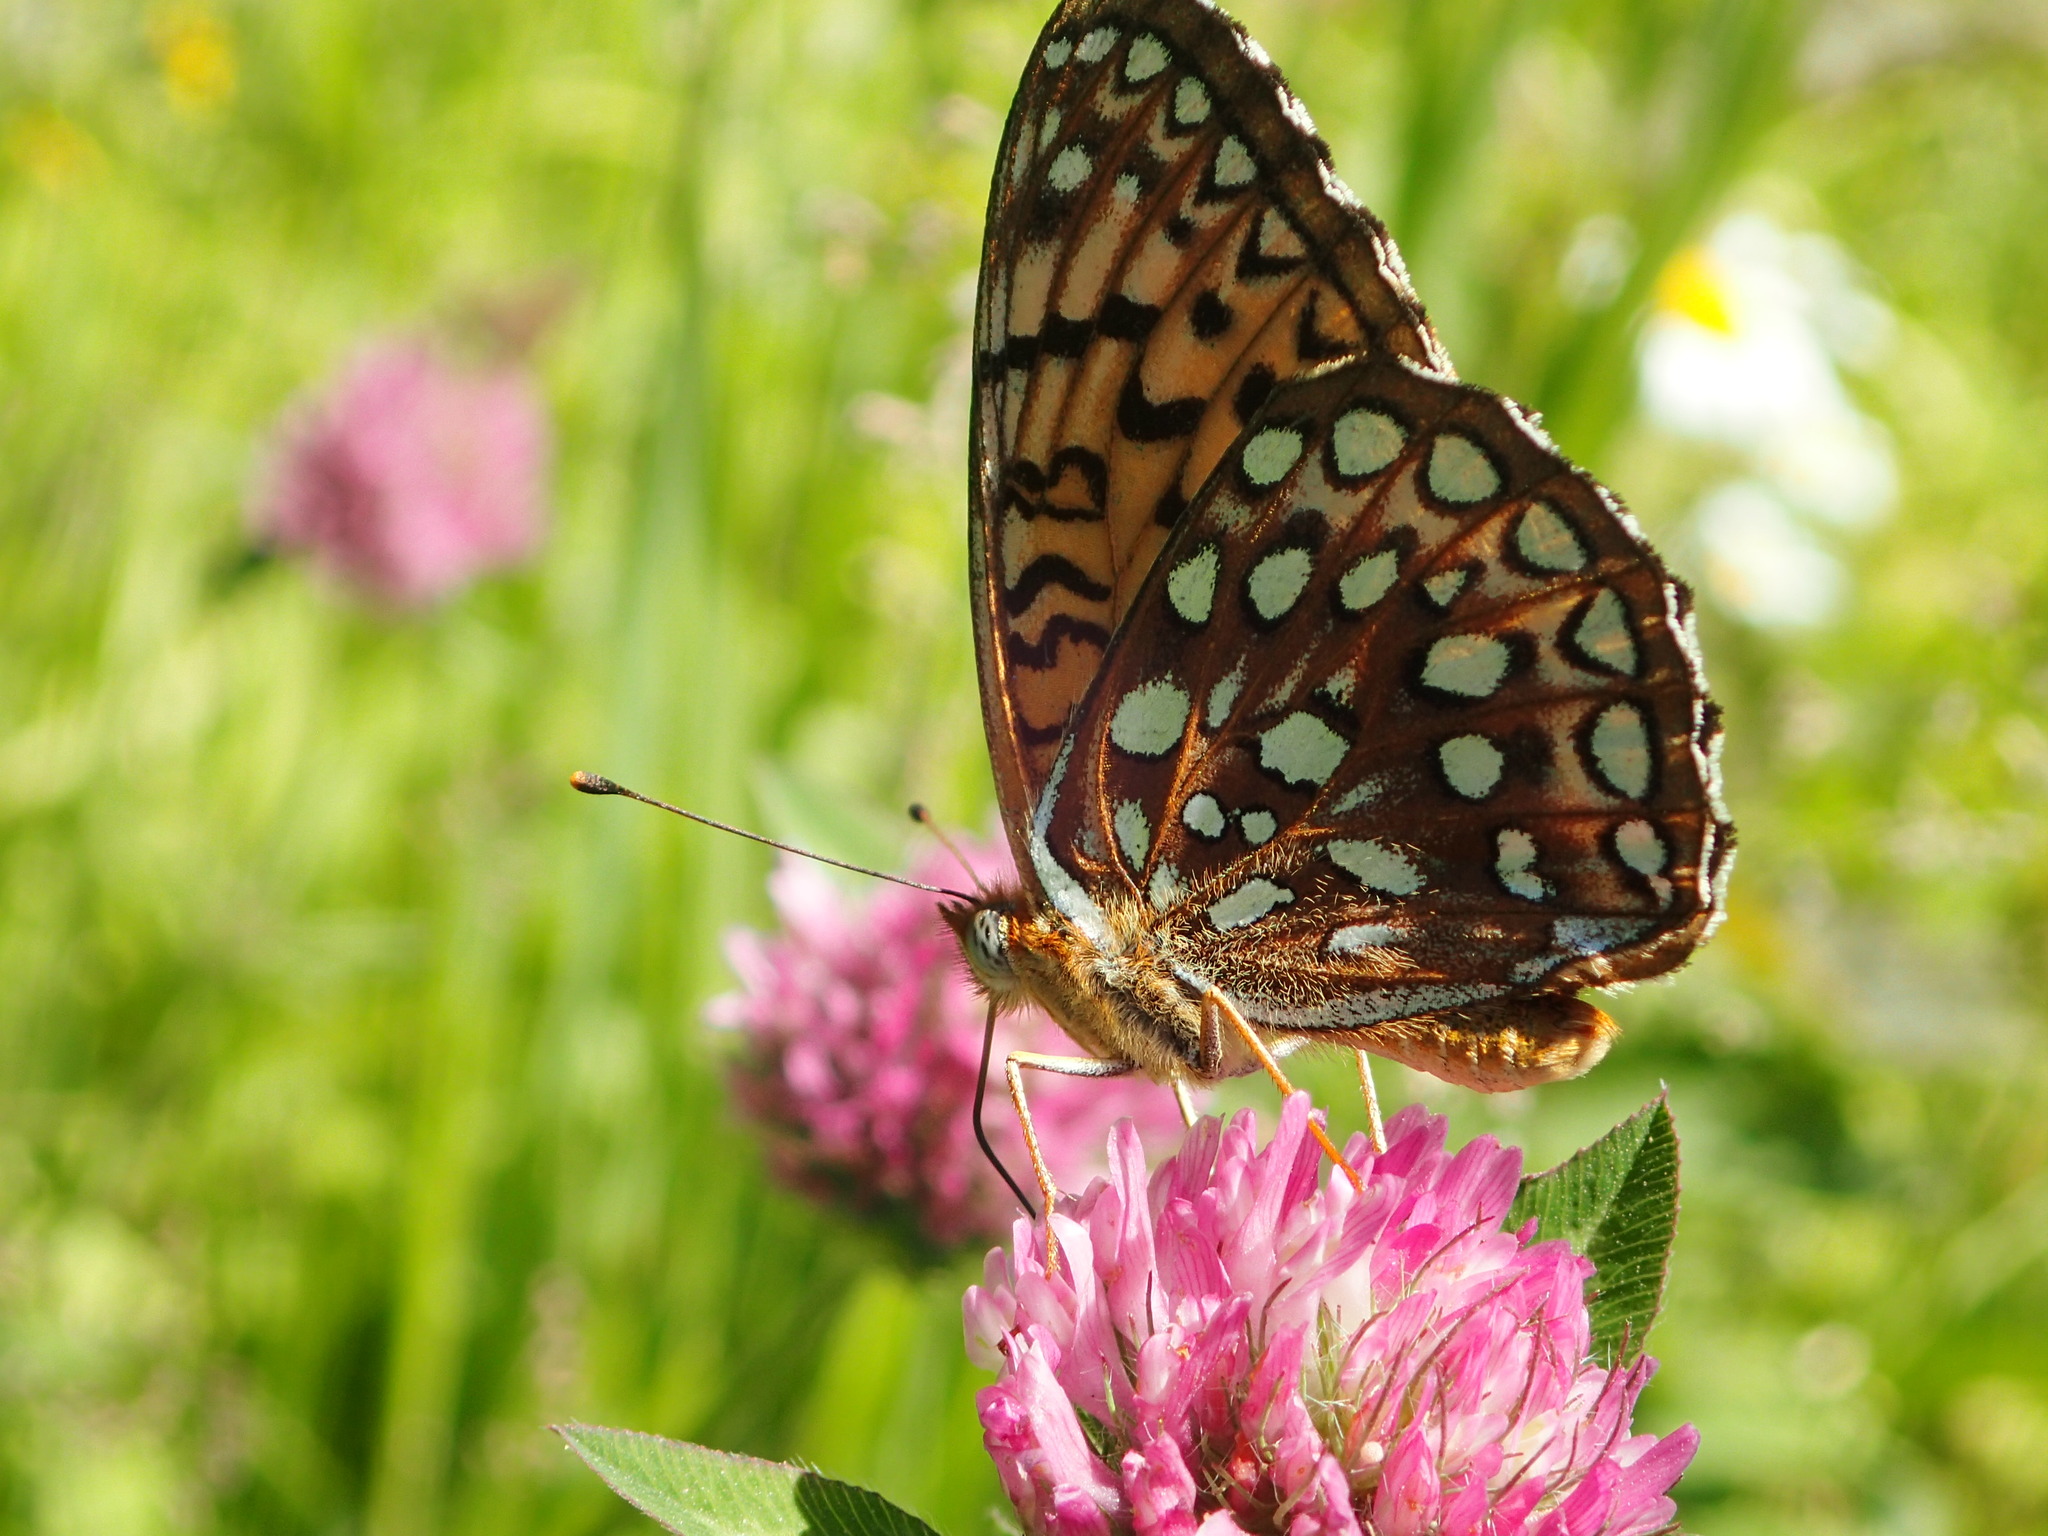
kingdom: Animalia
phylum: Arthropoda
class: Insecta
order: Lepidoptera
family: Nymphalidae
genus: Speyeria
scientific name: Speyeria atlantis
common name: Atlantis fritillary
